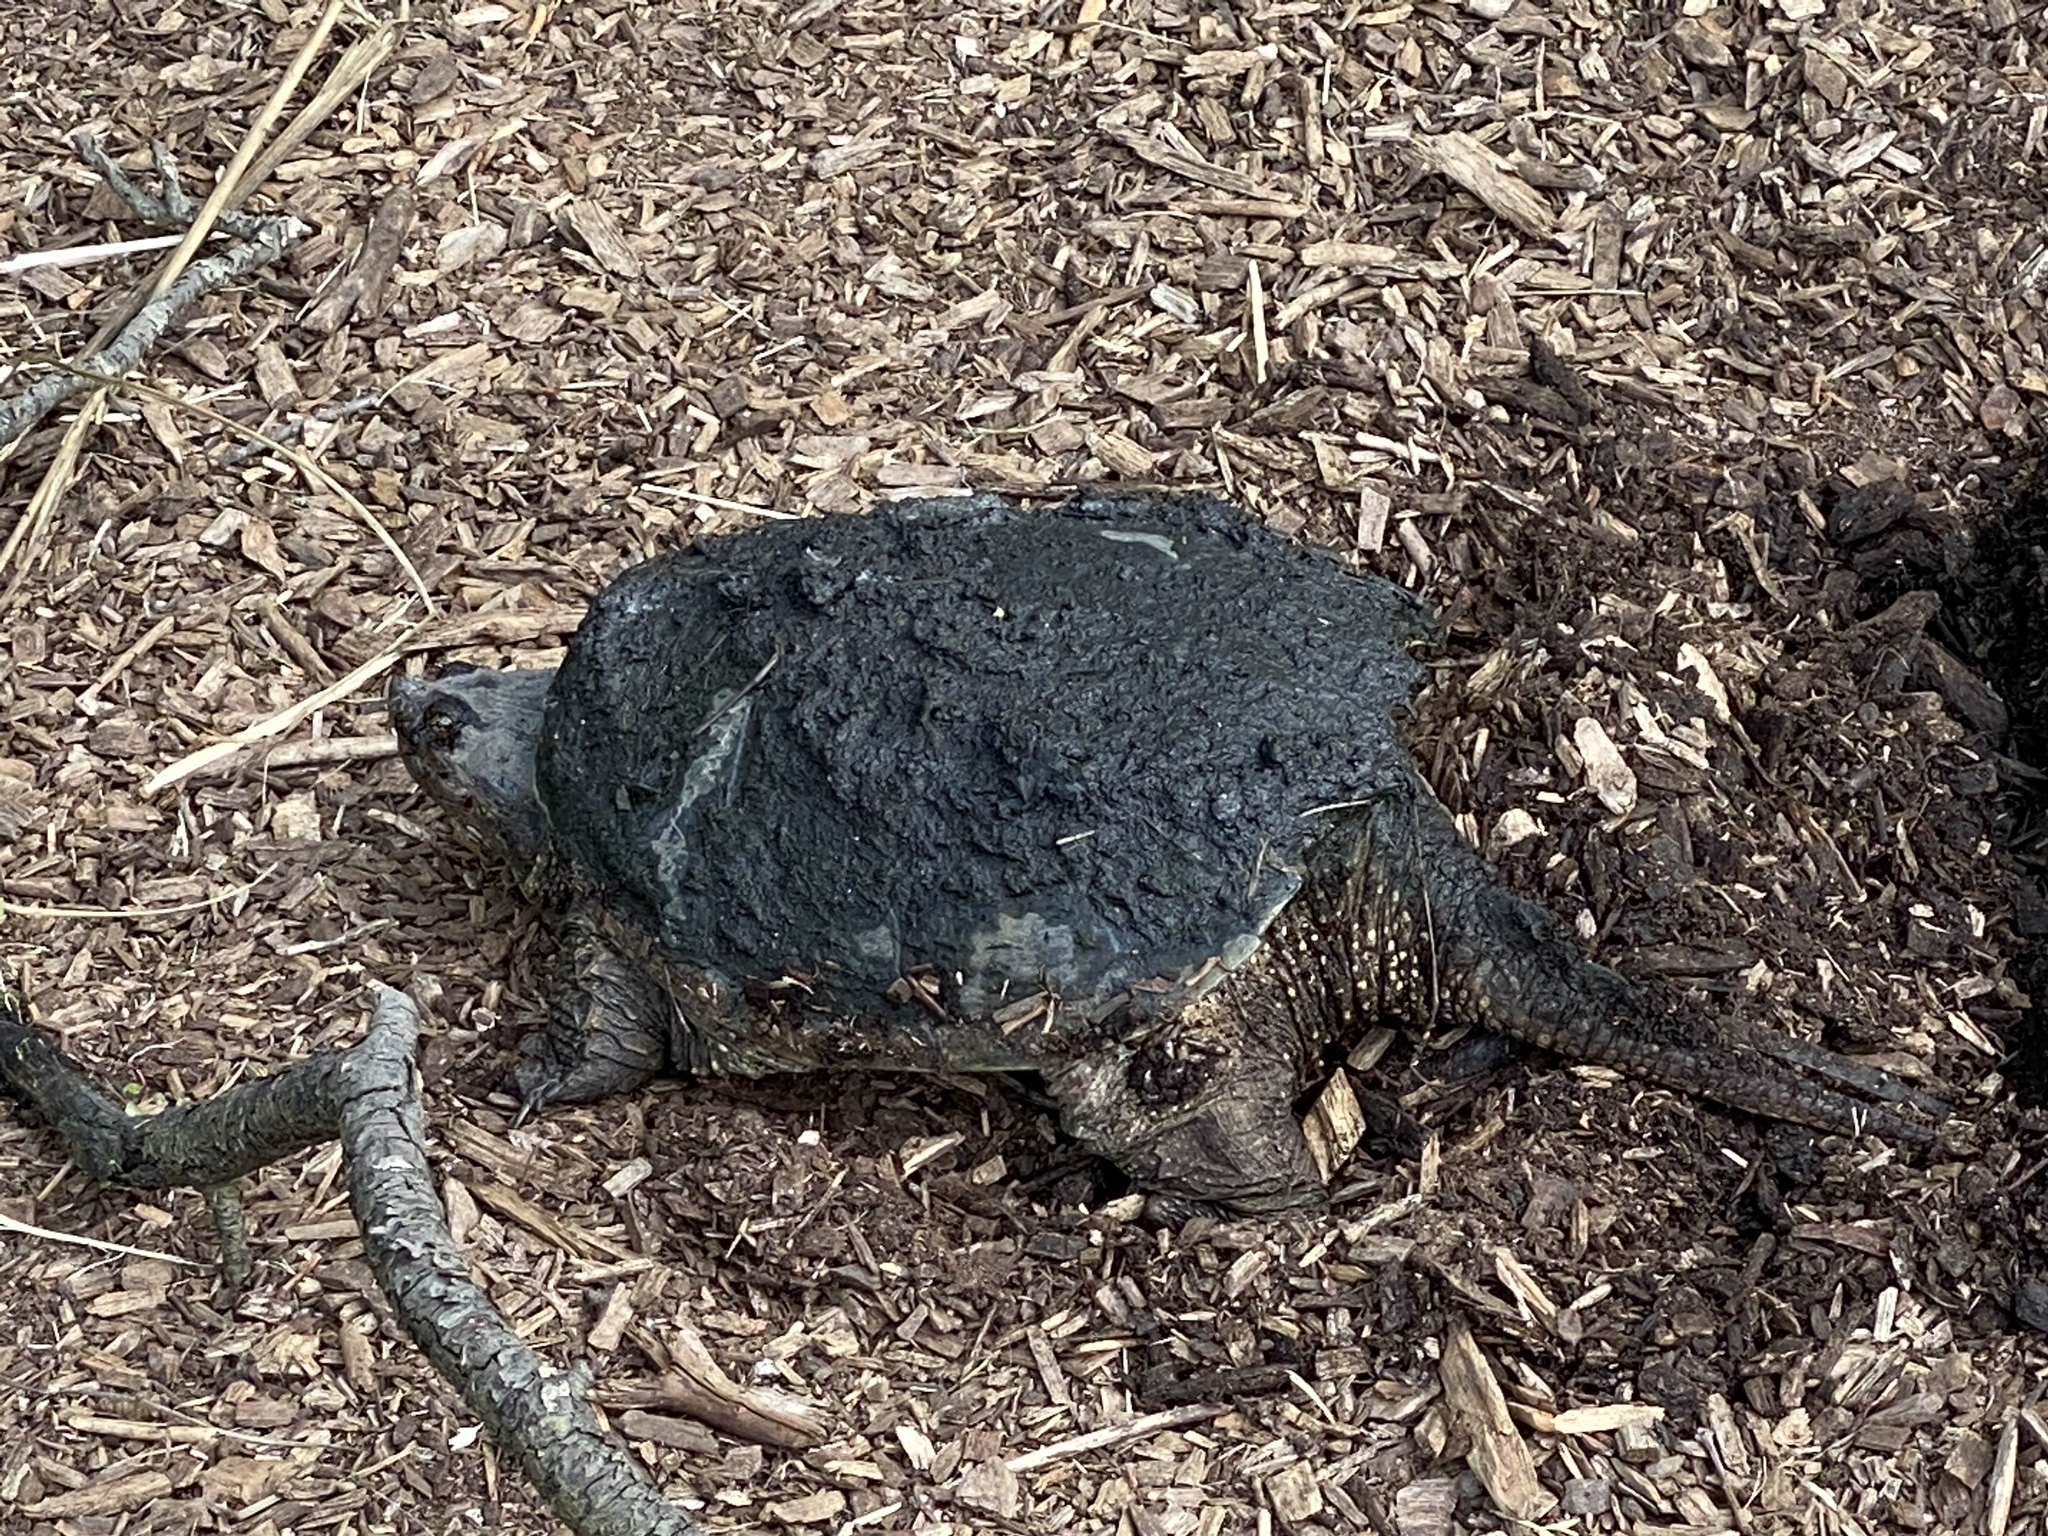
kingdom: Animalia
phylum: Chordata
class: Testudines
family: Chelydridae
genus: Chelydra
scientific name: Chelydra serpentina
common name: Common snapping turtle
